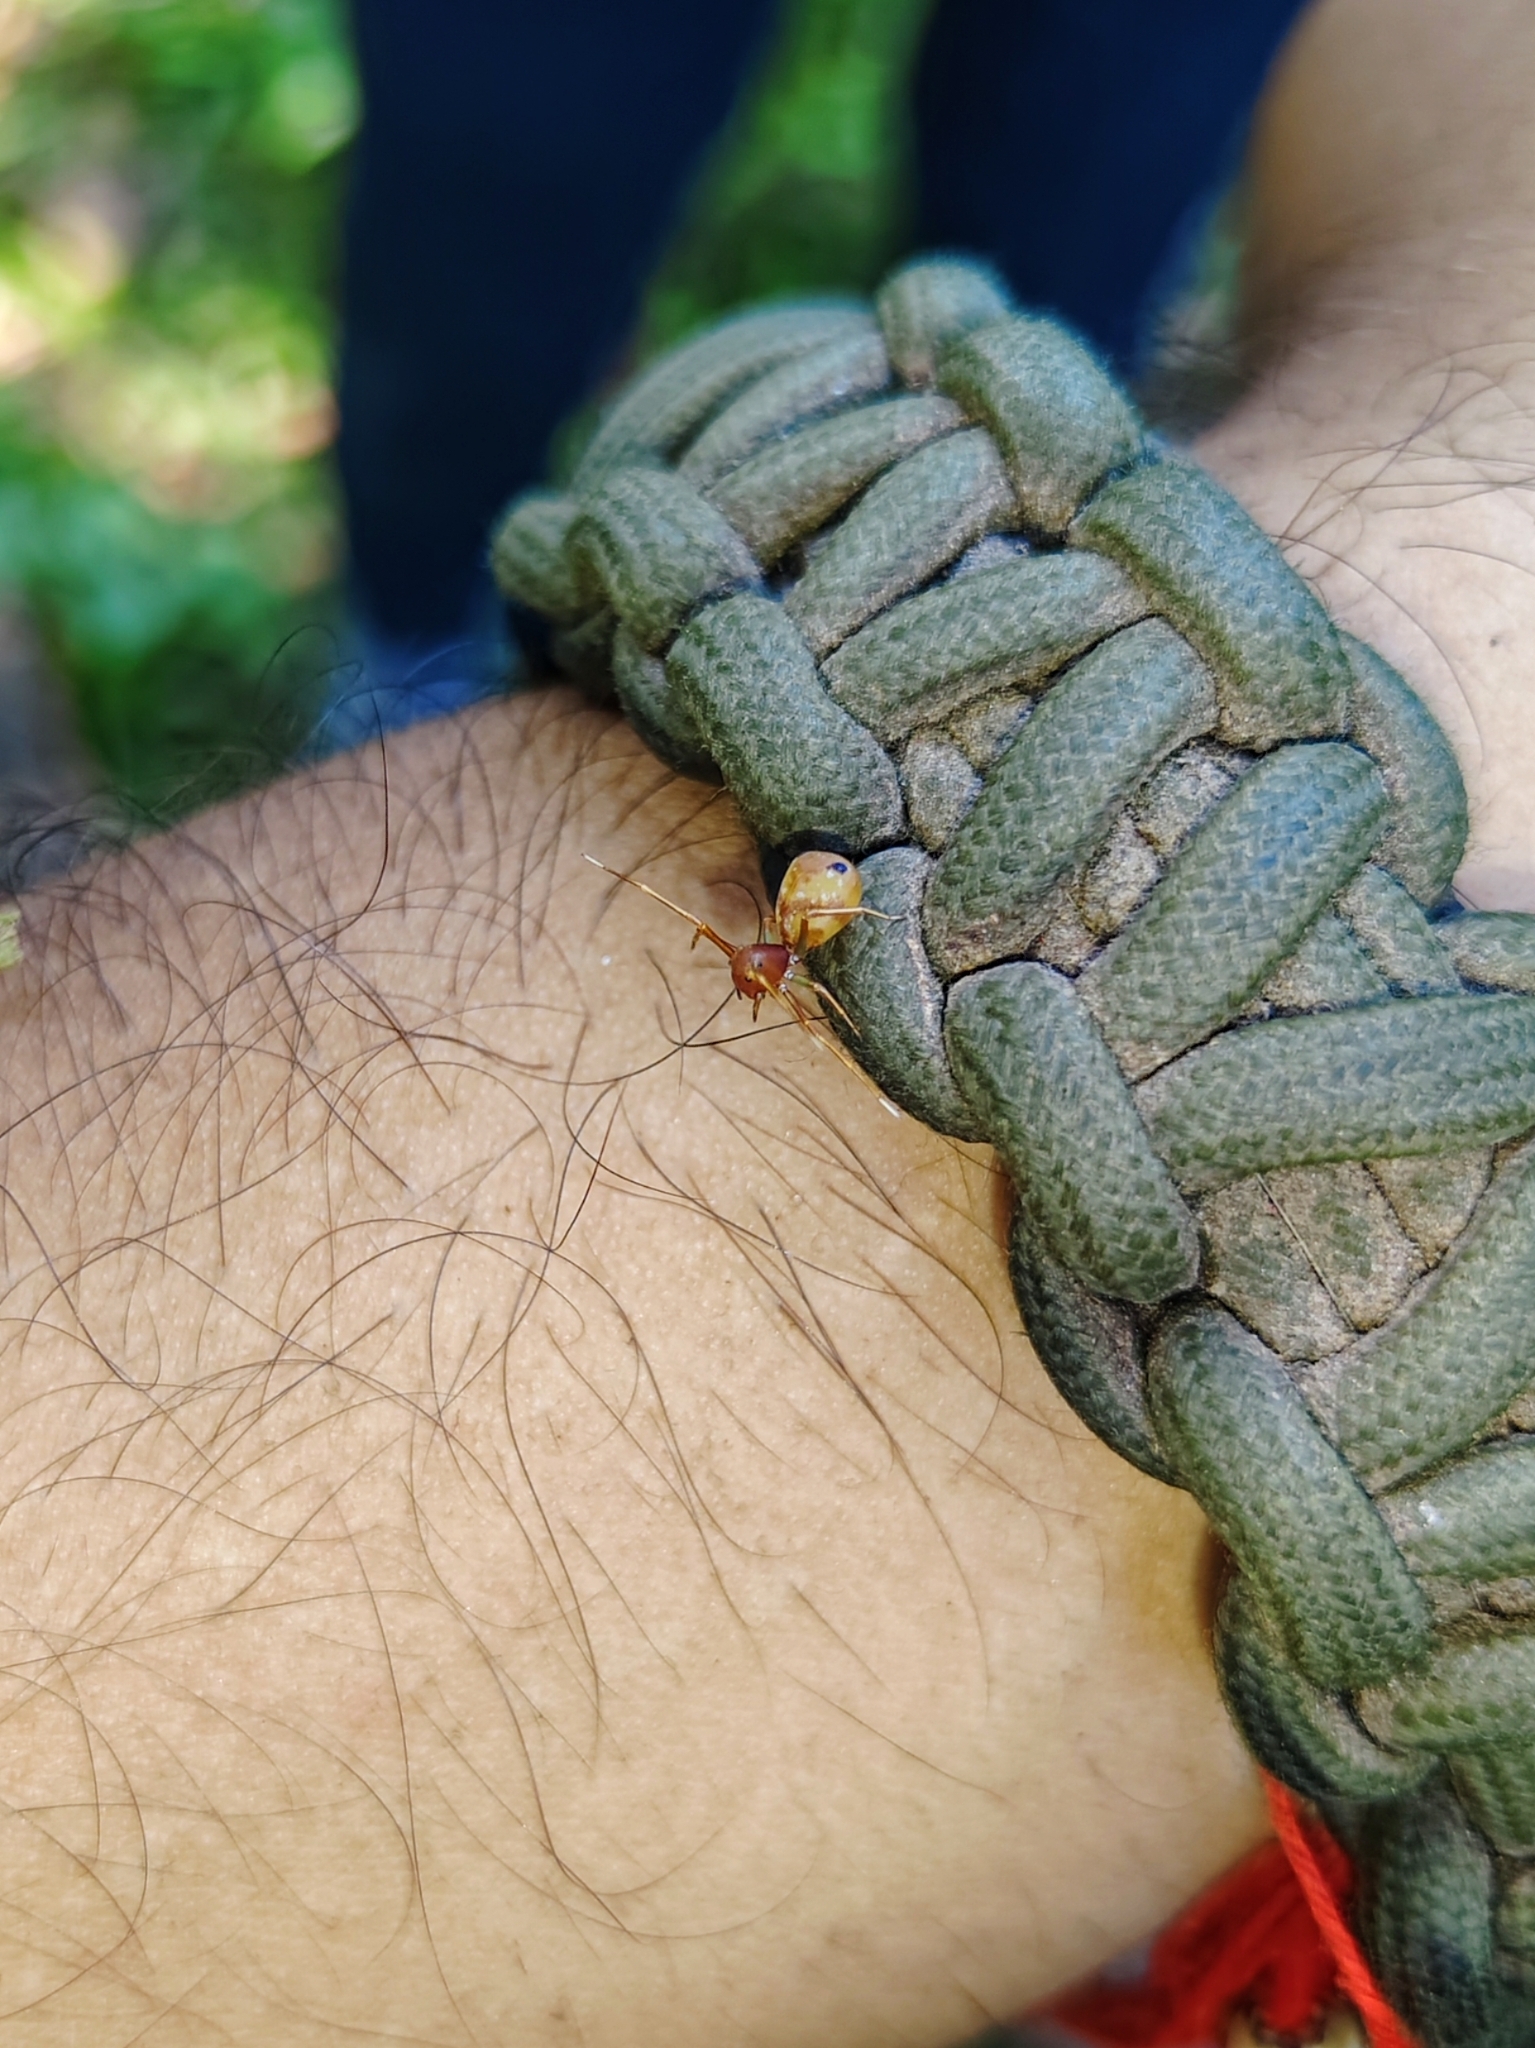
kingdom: Animalia
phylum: Arthropoda
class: Arachnida
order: Araneae
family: Thomisidae
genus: Amyciaea
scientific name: Amyciaea forticeps
